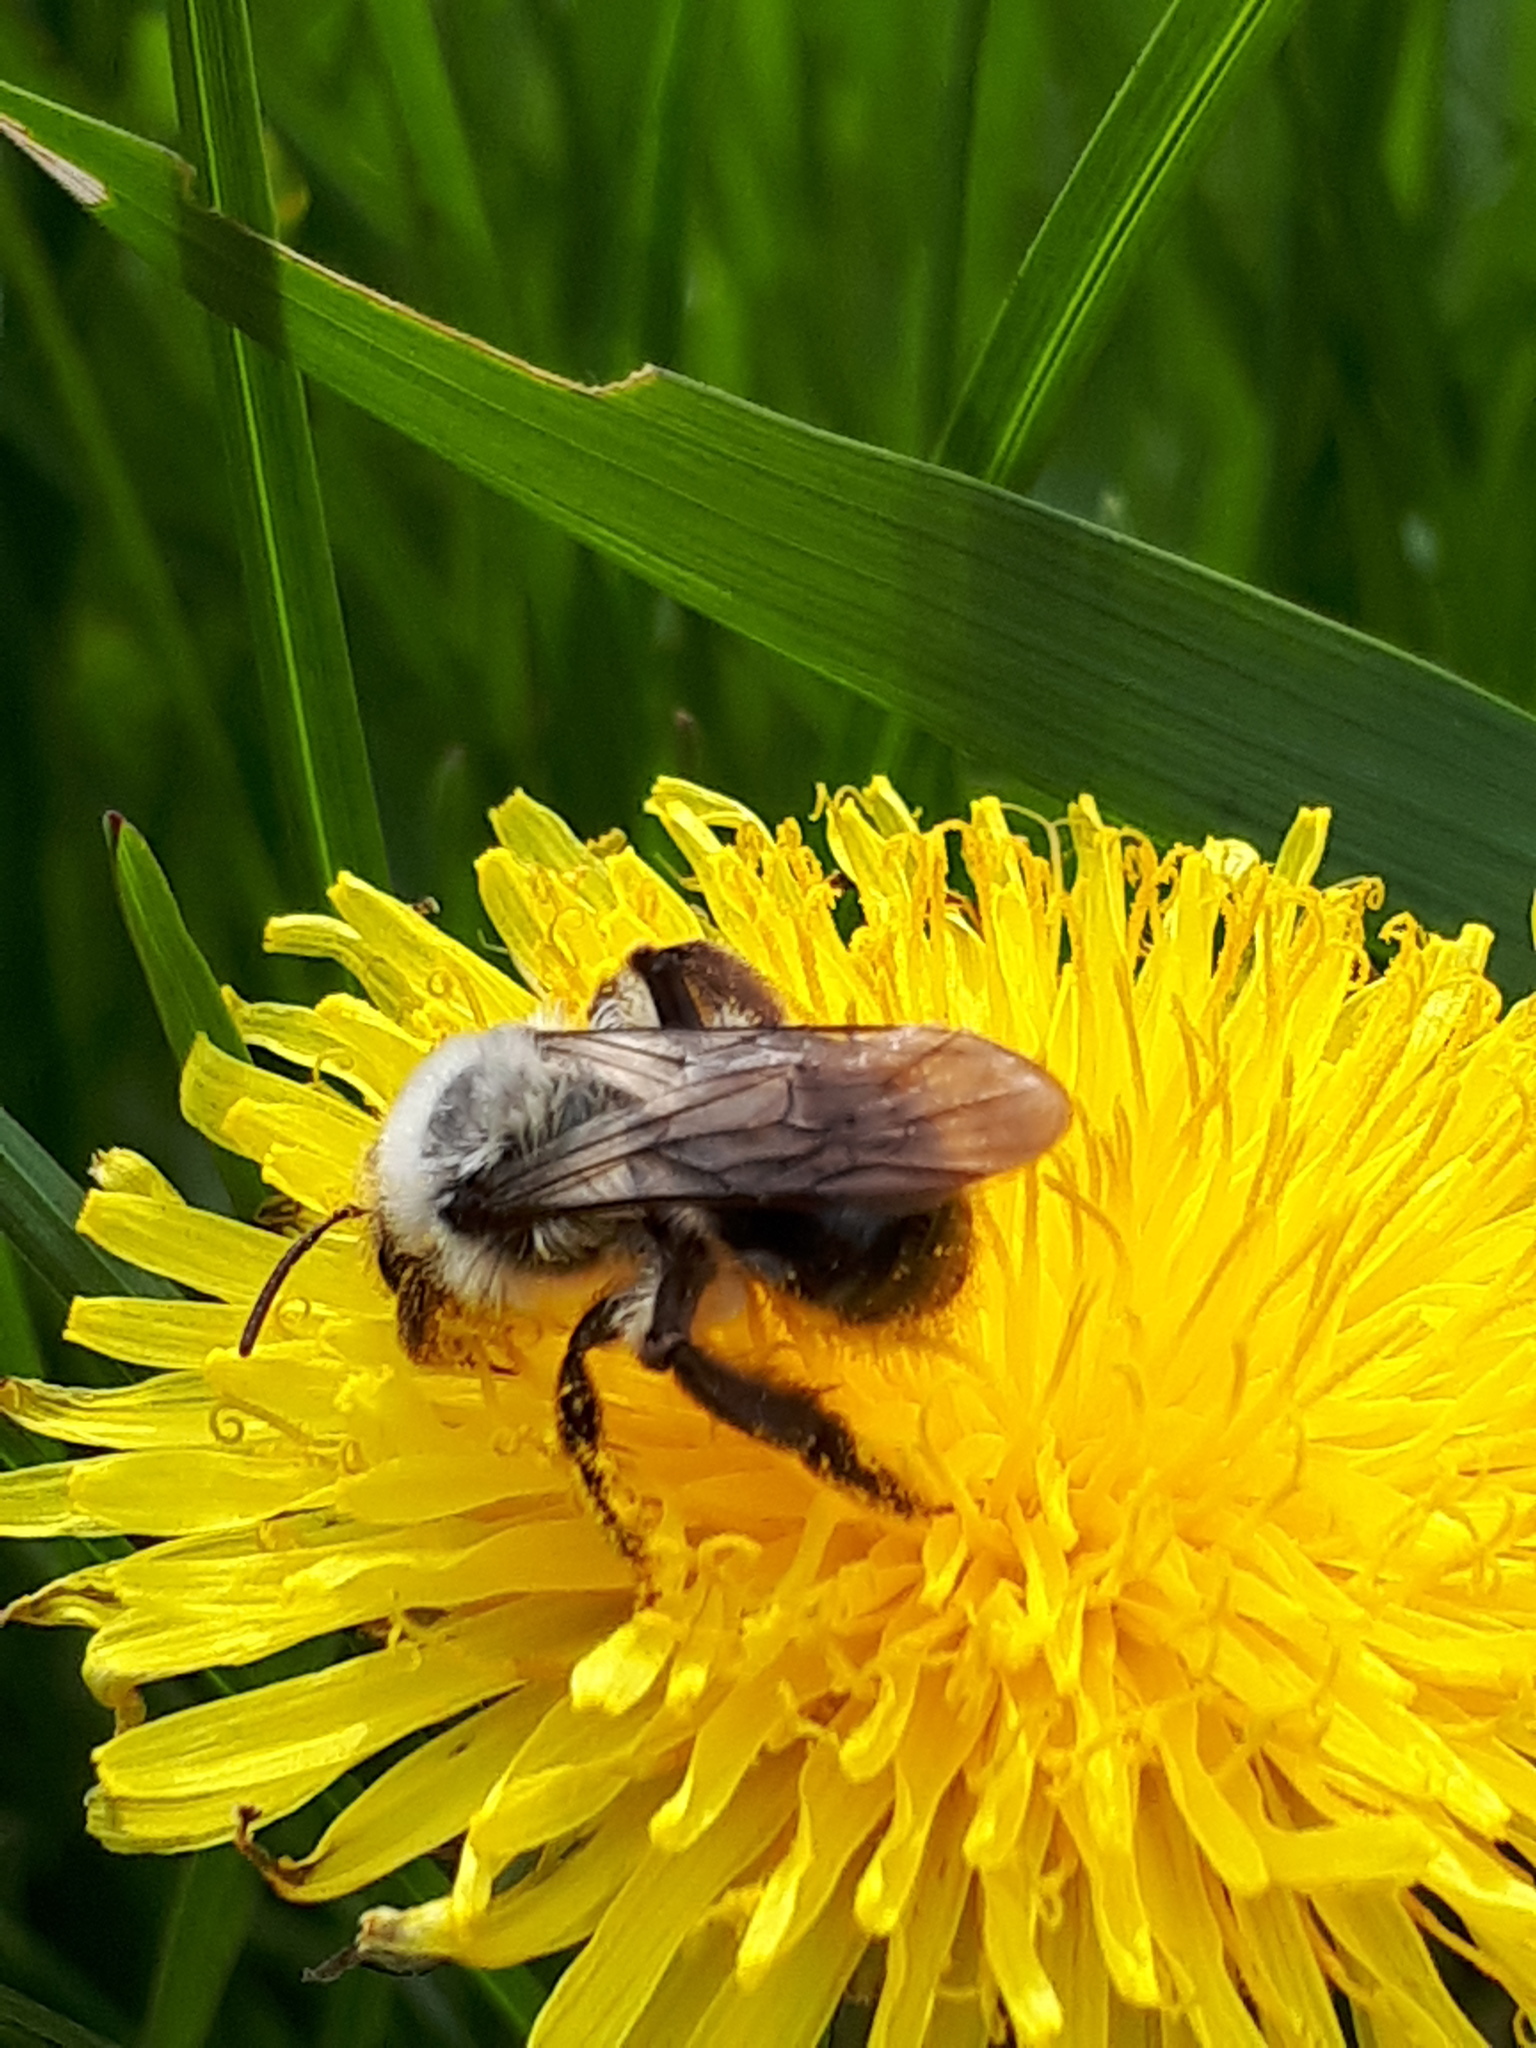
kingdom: Animalia
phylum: Arthropoda
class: Insecta
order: Hymenoptera
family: Andrenidae
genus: Andrena
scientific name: Andrena vaga
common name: Grey-backed mining bee
